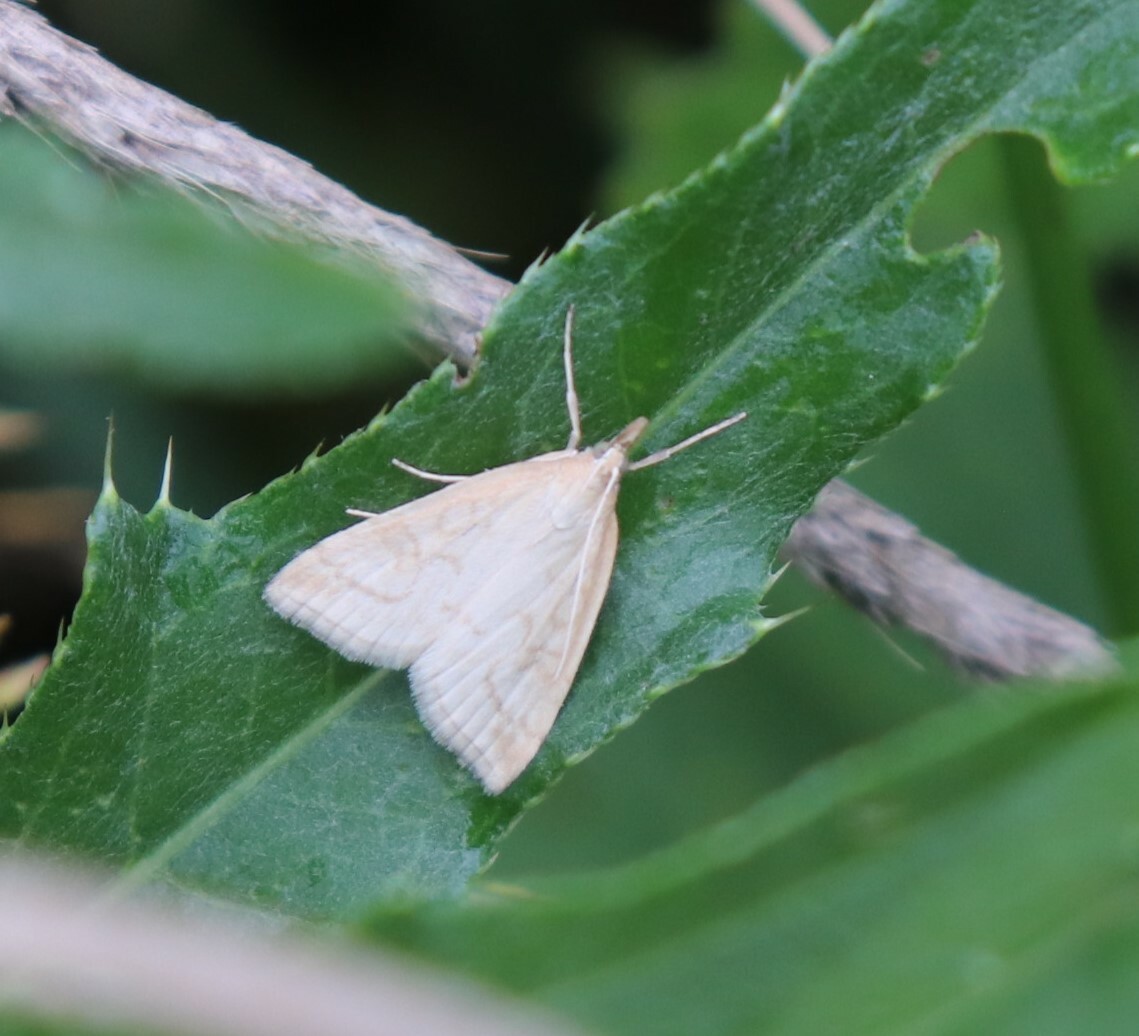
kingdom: Animalia
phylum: Arthropoda
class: Insecta
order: Lepidoptera
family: Crambidae
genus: Udea
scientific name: Udea lutealis
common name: Pale straw pearl
